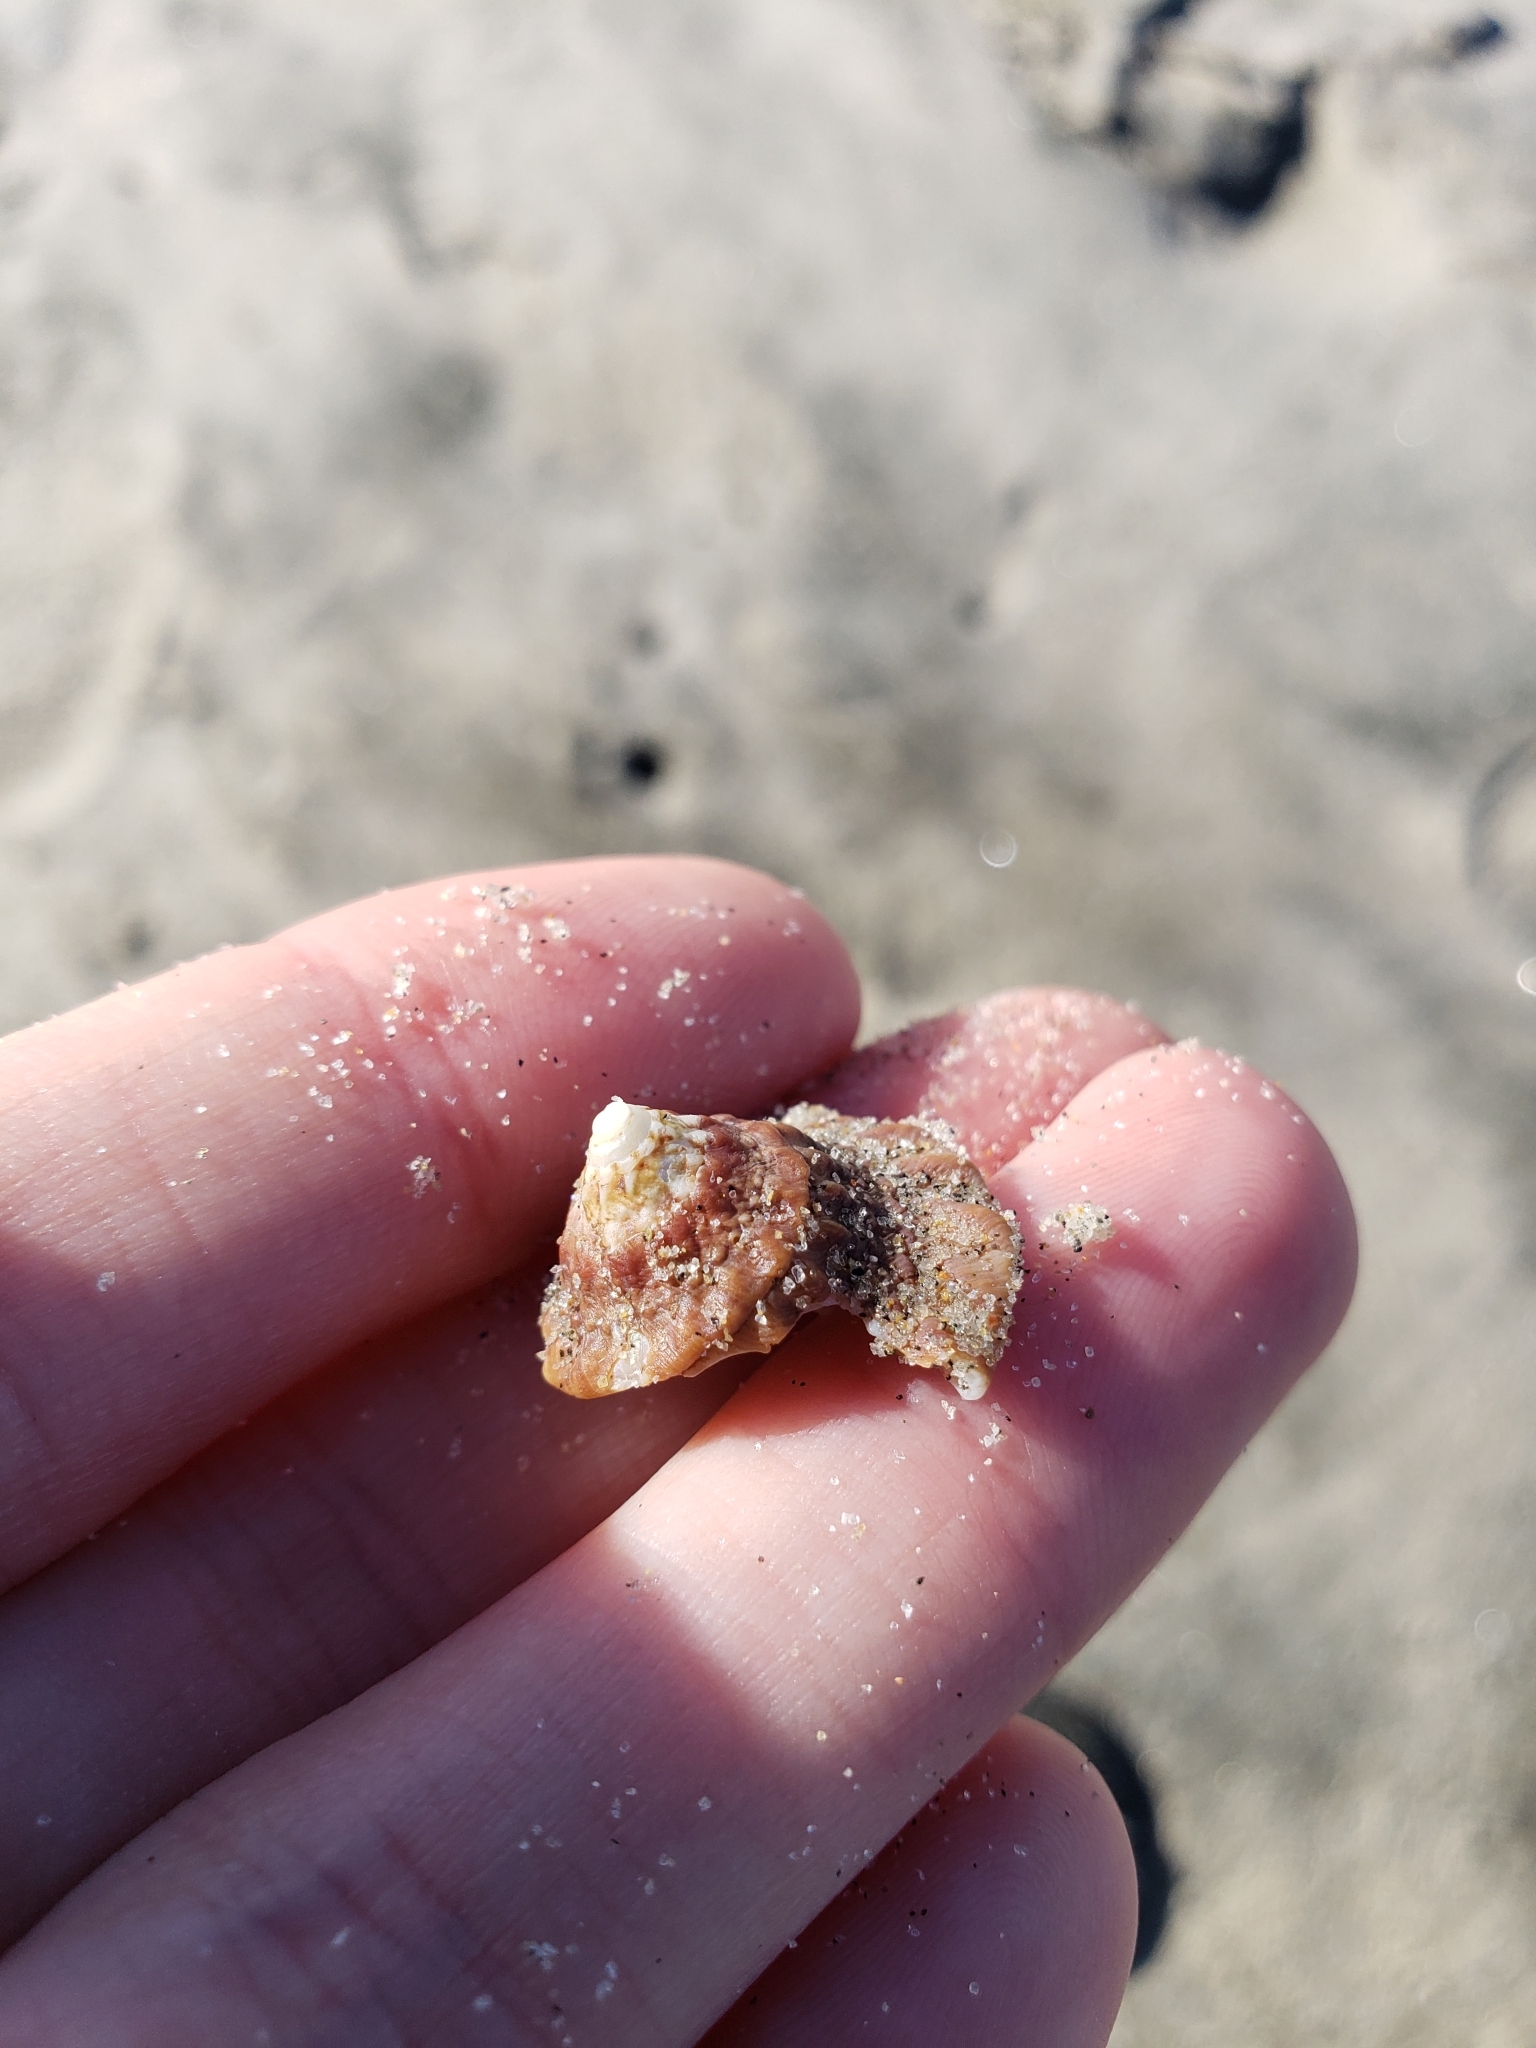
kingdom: Animalia
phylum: Mollusca
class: Gastropoda
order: Trochida
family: Turbinidae
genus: Megastraea
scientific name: Megastraea undosa
